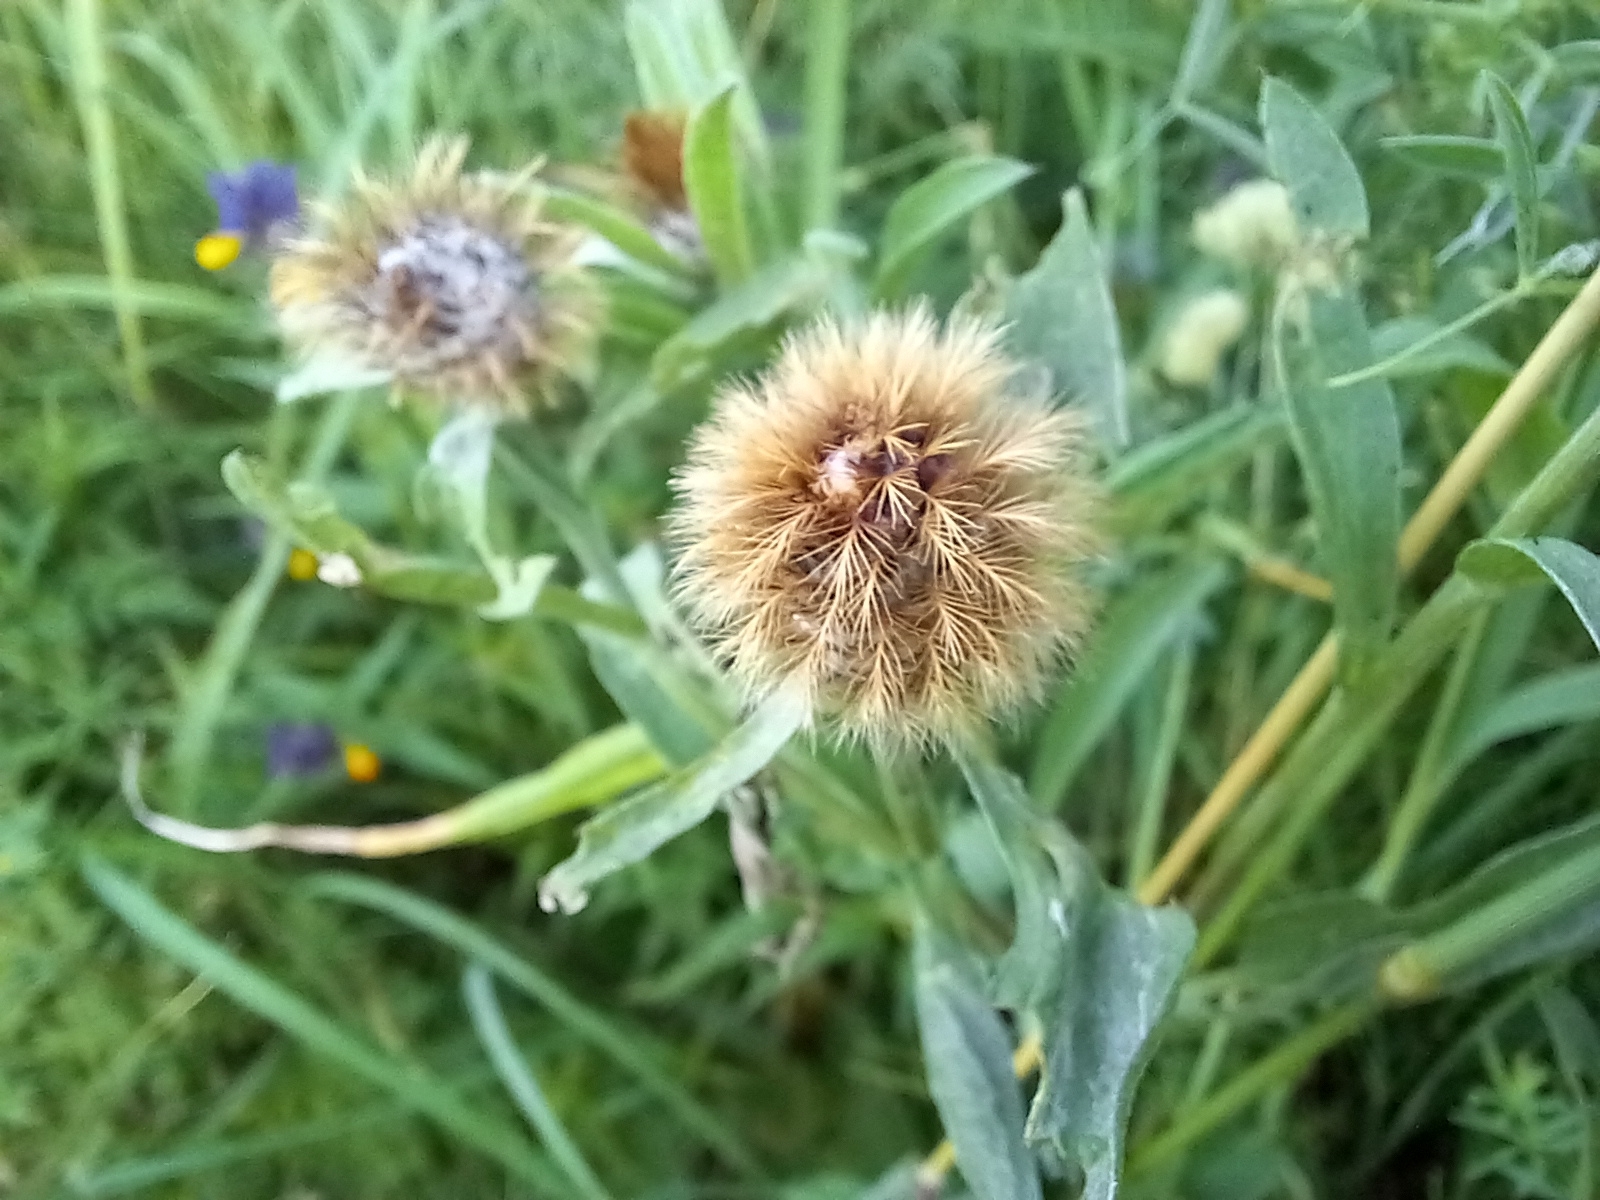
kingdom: Plantae
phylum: Tracheophyta
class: Magnoliopsida
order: Asterales
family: Asteraceae
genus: Centaurea
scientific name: Centaurea pseudophrygia
